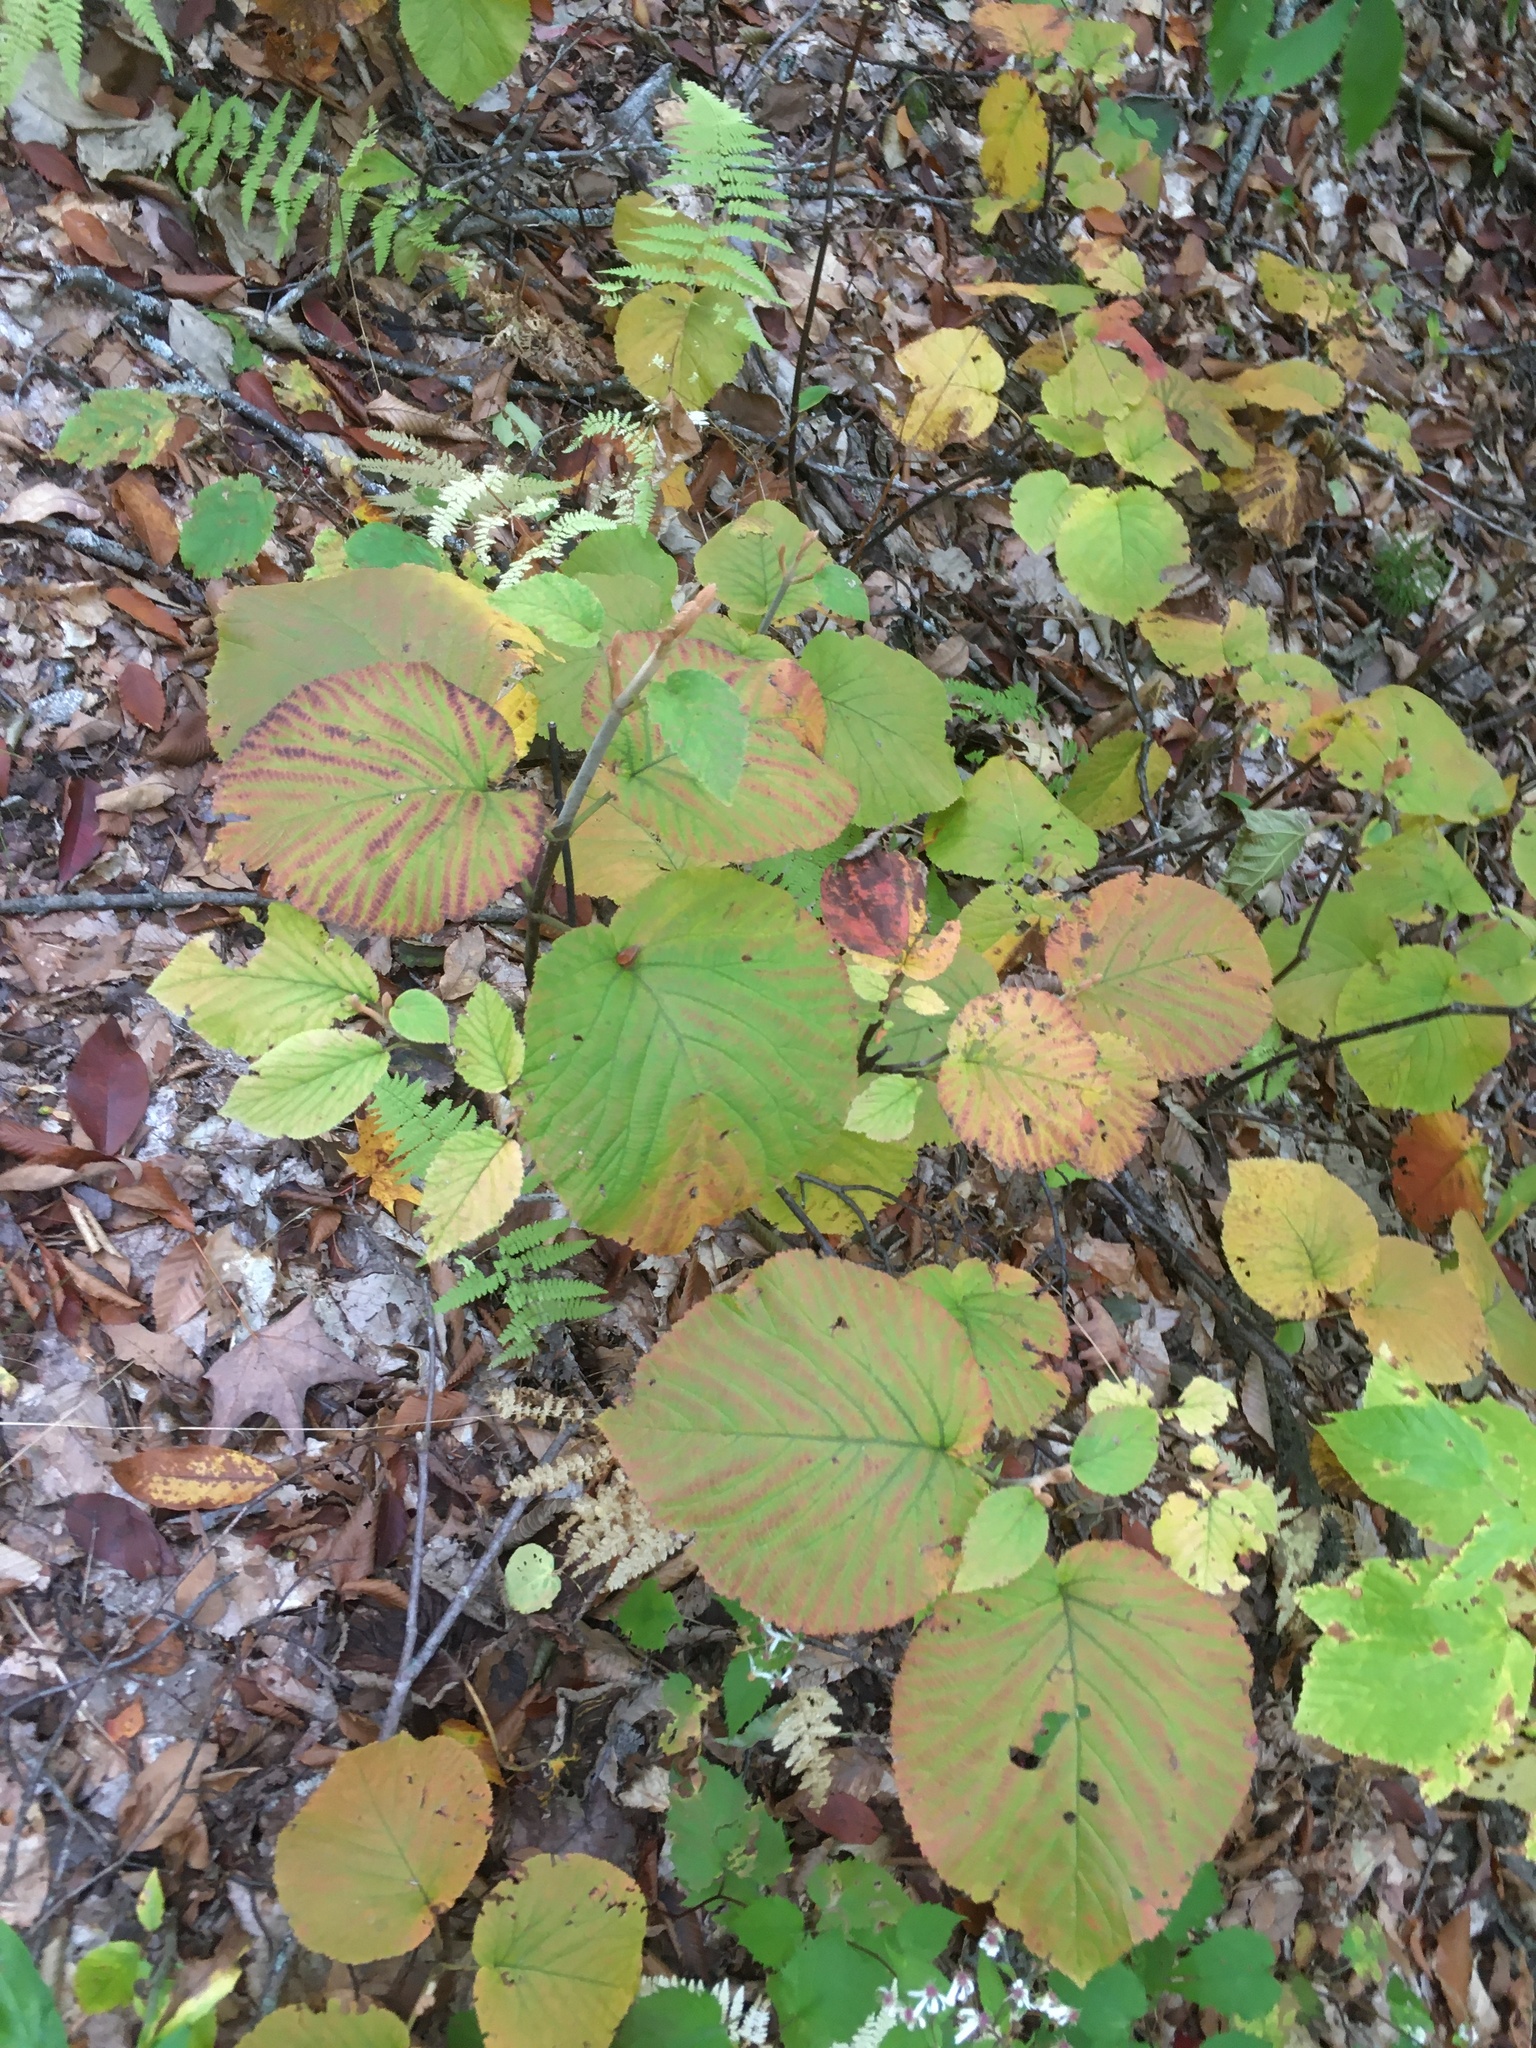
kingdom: Plantae
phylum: Tracheophyta
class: Magnoliopsida
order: Dipsacales
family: Viburnaceae
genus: Viburnum
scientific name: Viburnum lantanoides
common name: Hobblebush
